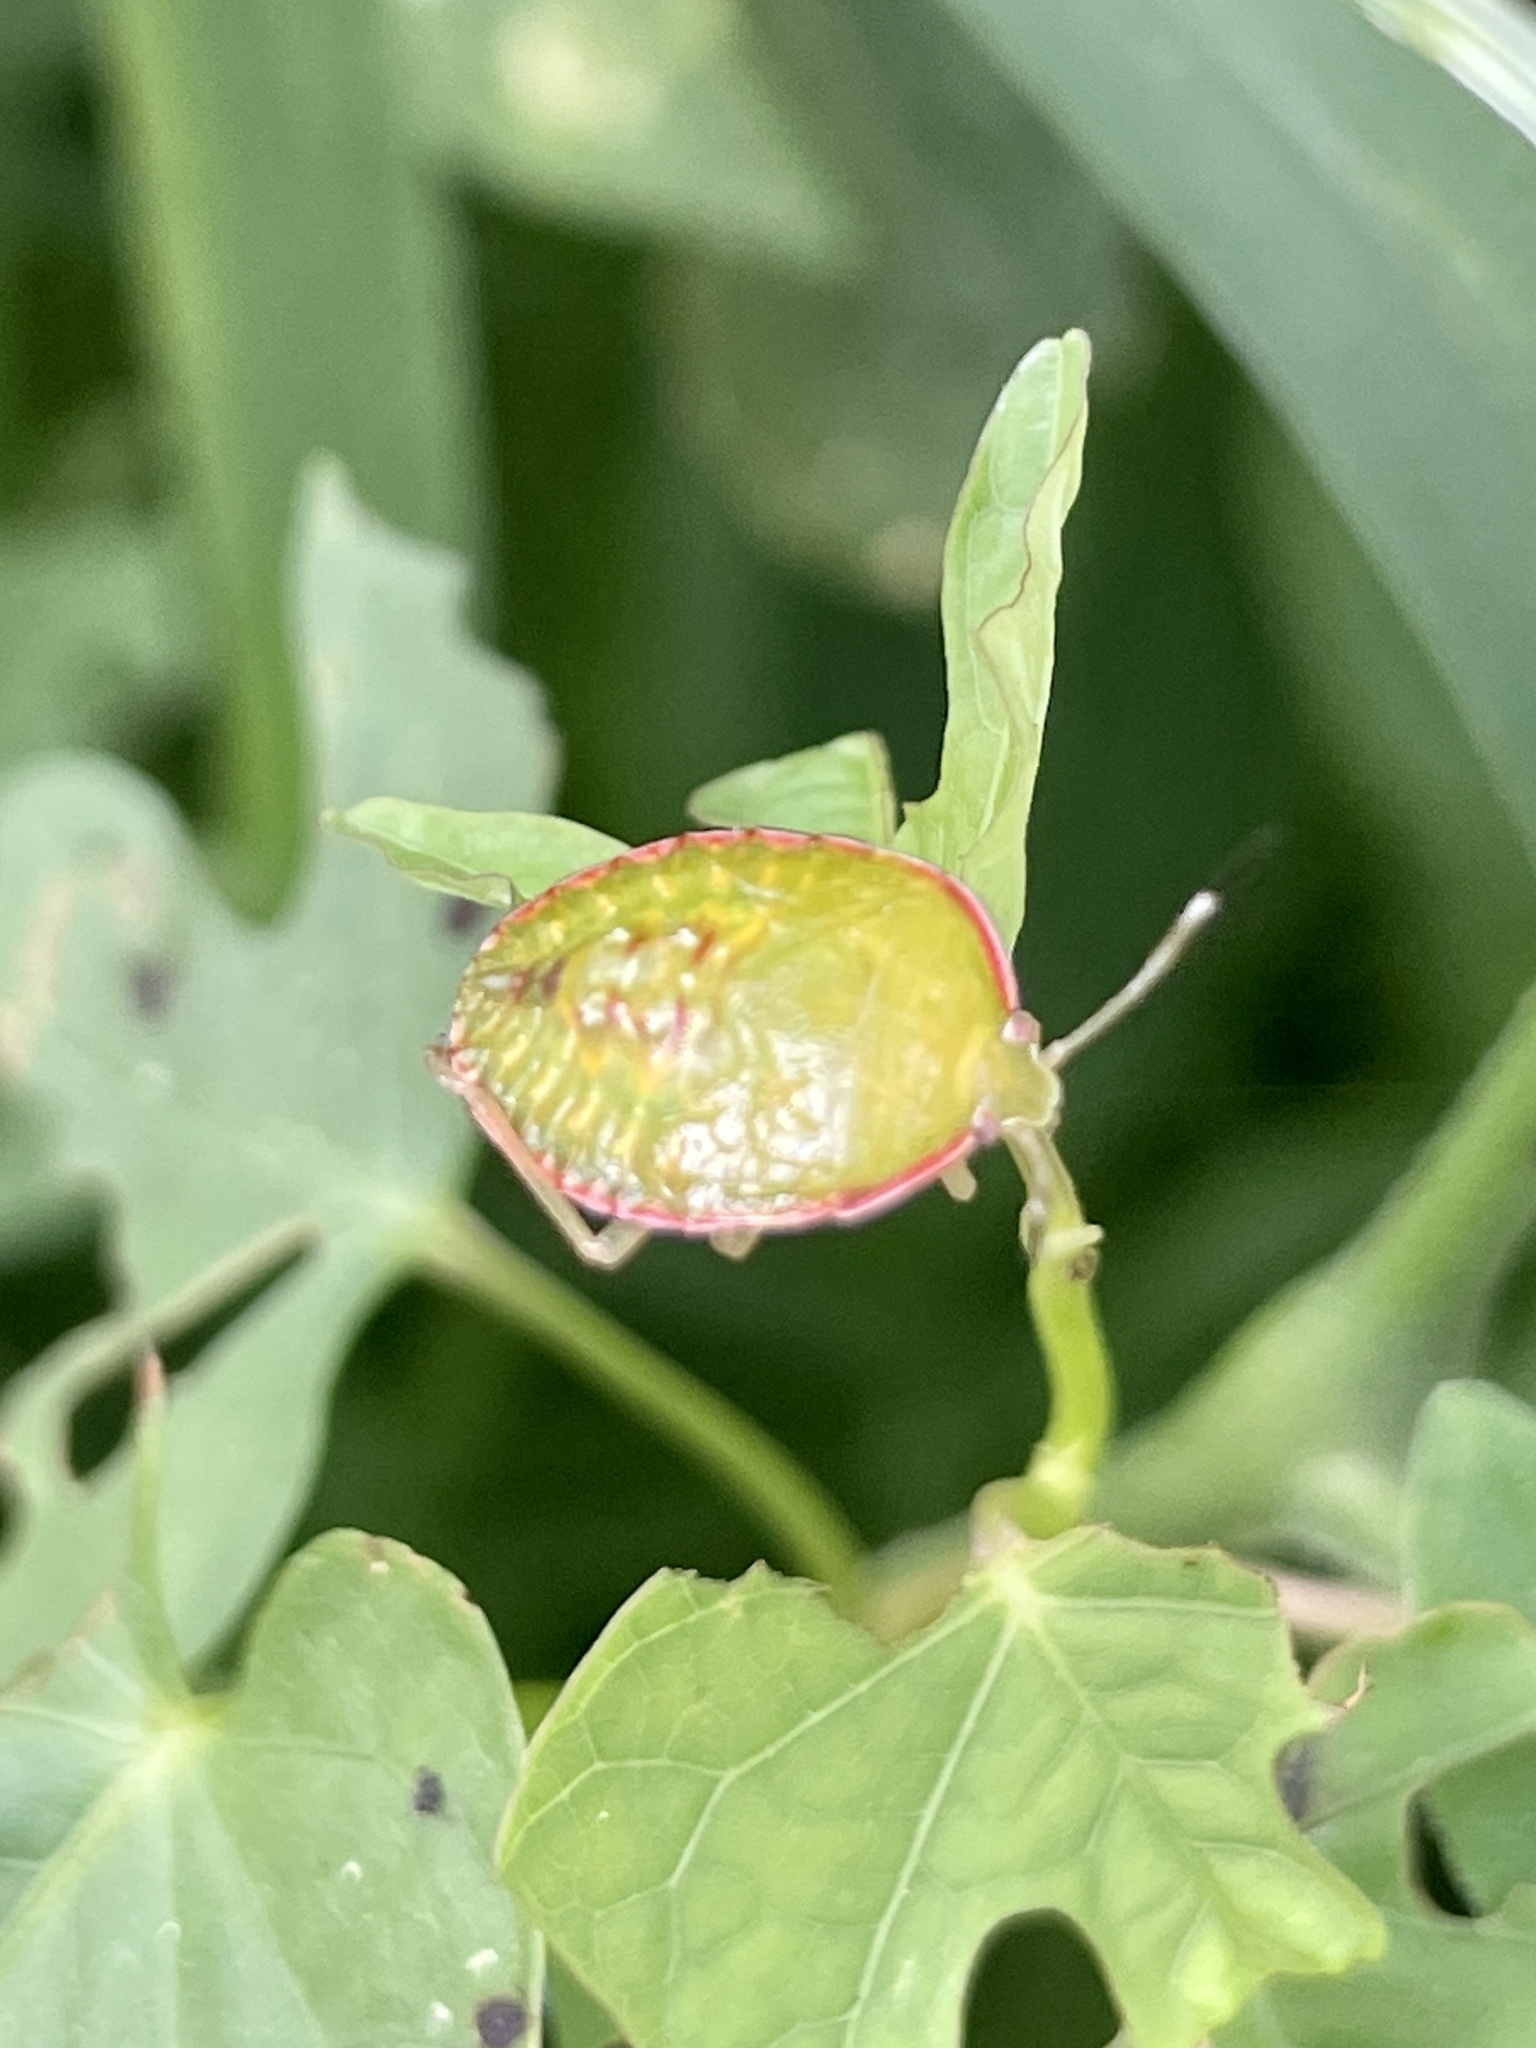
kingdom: Animalia
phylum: Arthropoda
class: Insecta
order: Hemiptera
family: Pentatomidae
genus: Edessa
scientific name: Edessa bifida
